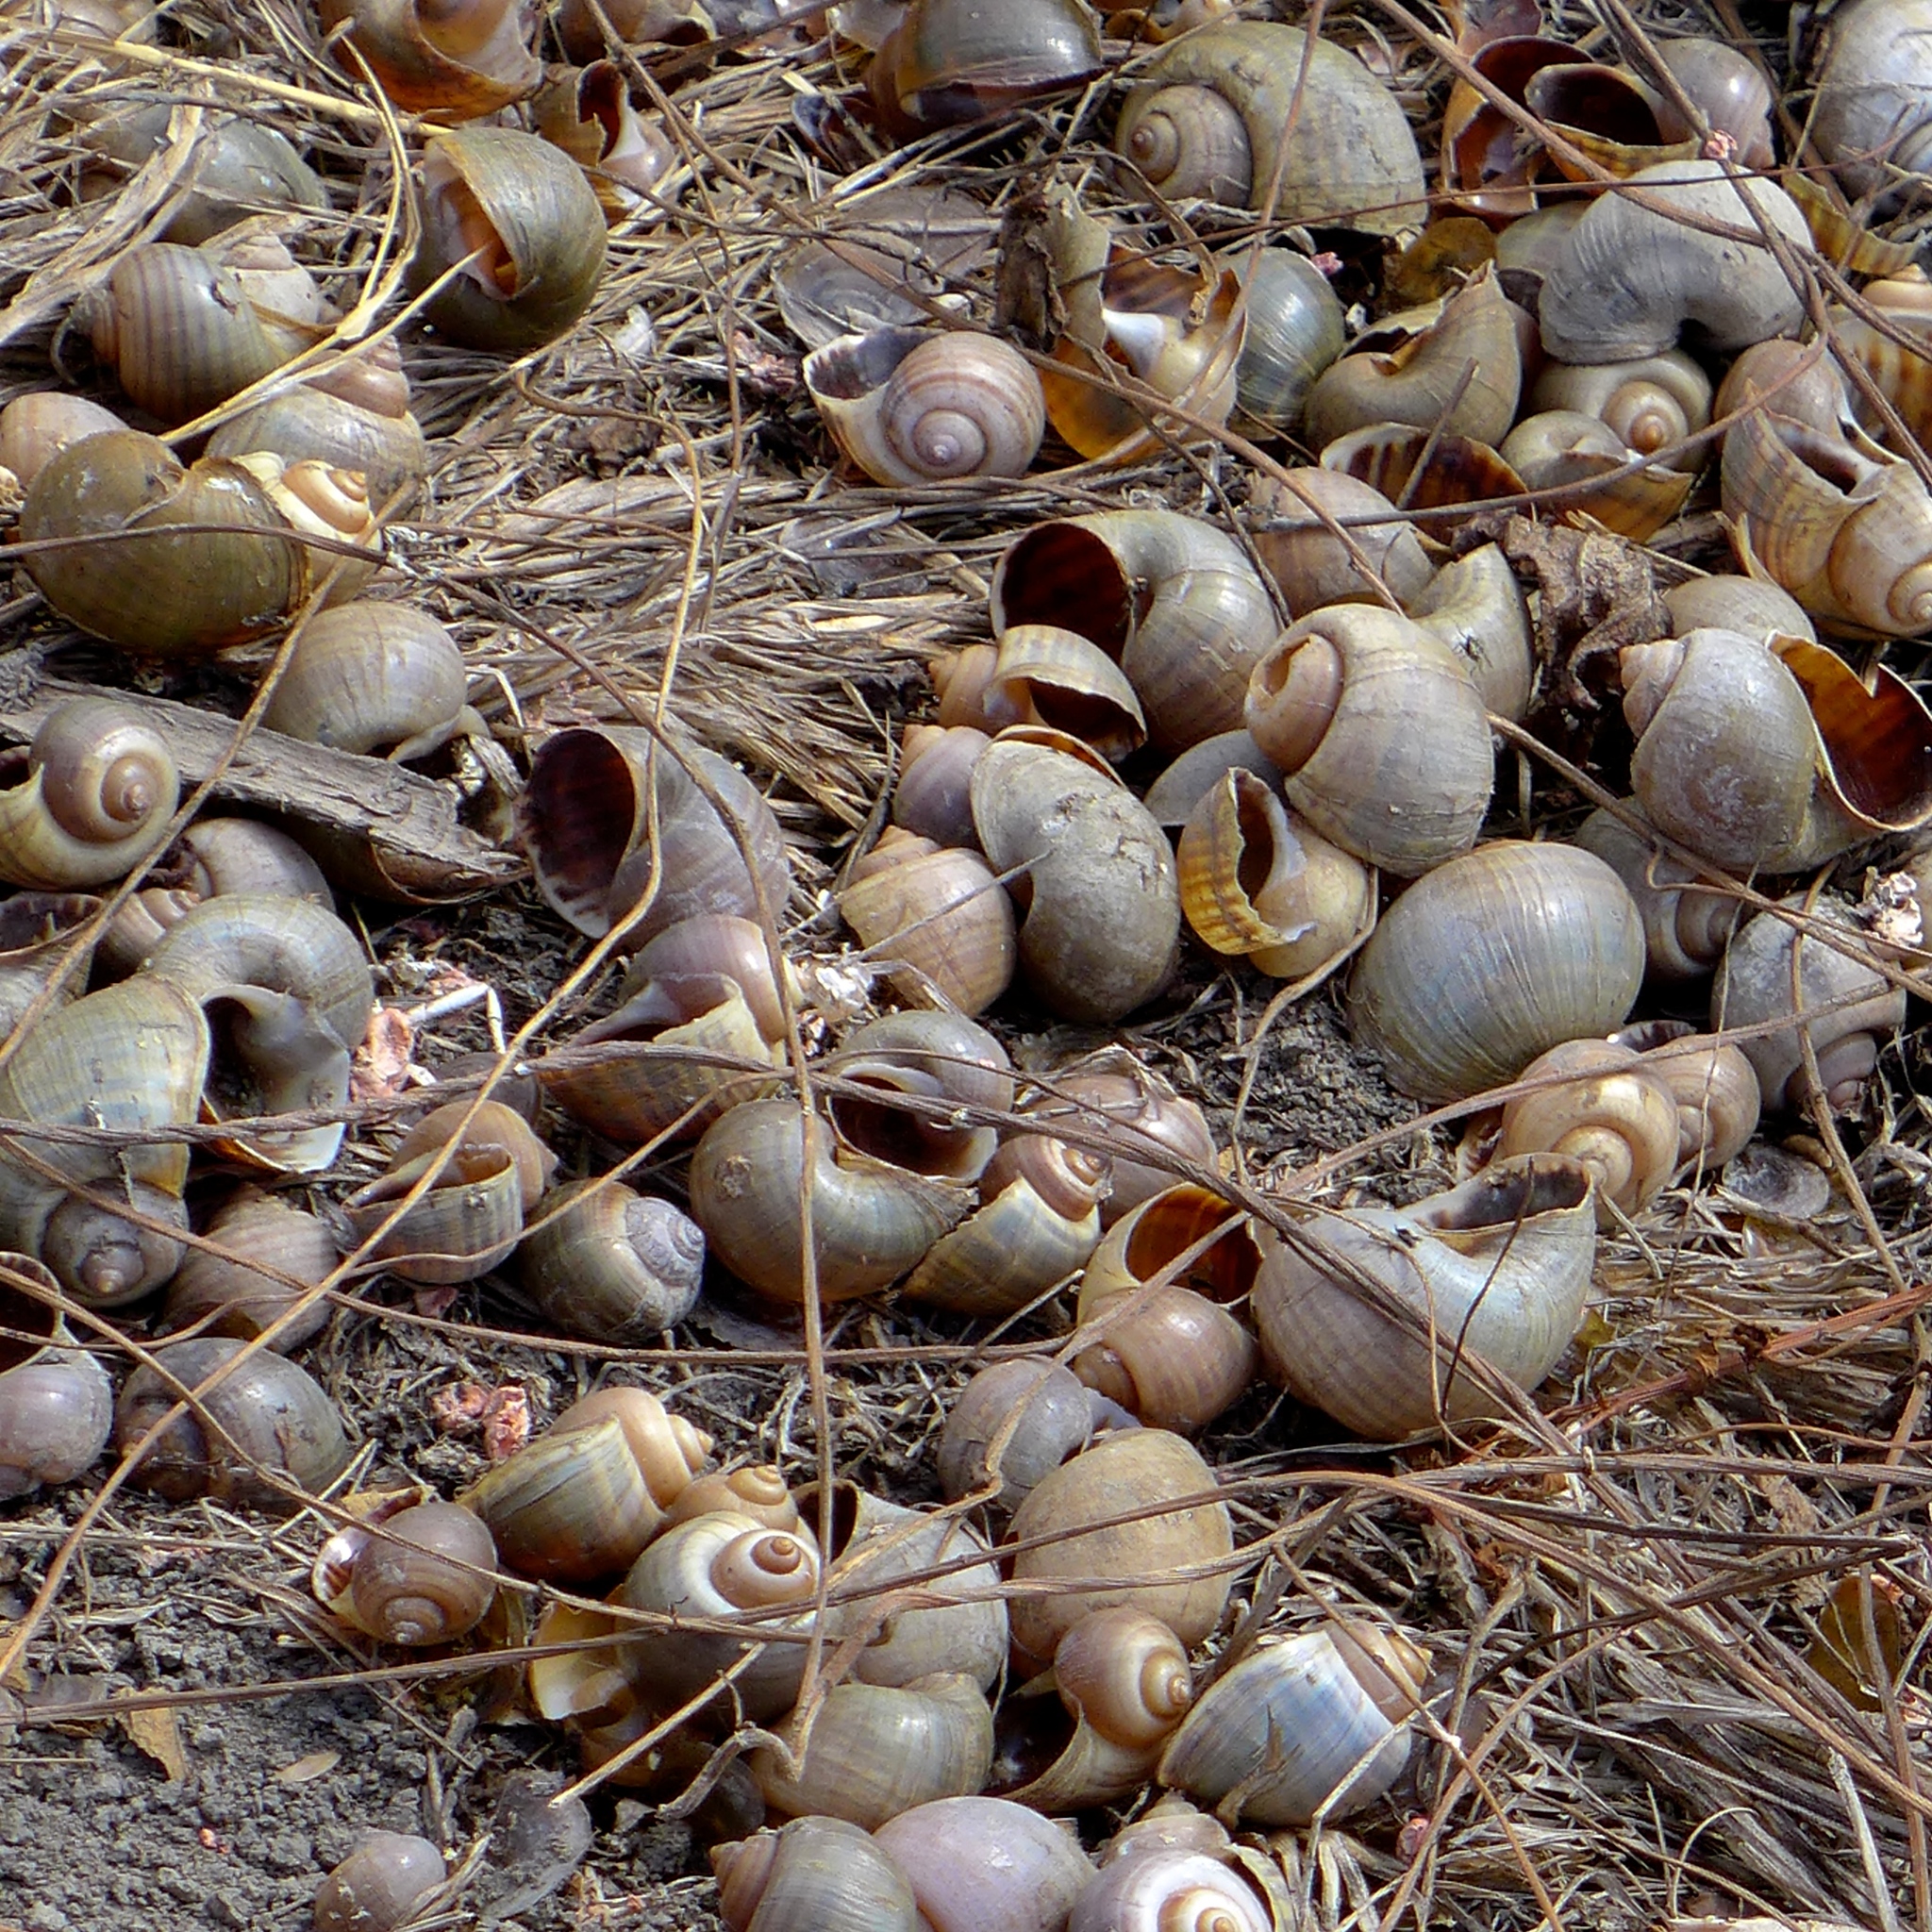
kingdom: Animalia
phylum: Chordata
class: Aves
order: Accipitriformes
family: Accipitridae
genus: Rostrhamus
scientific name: Rostrhamus sociabilis
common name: Snail kite
